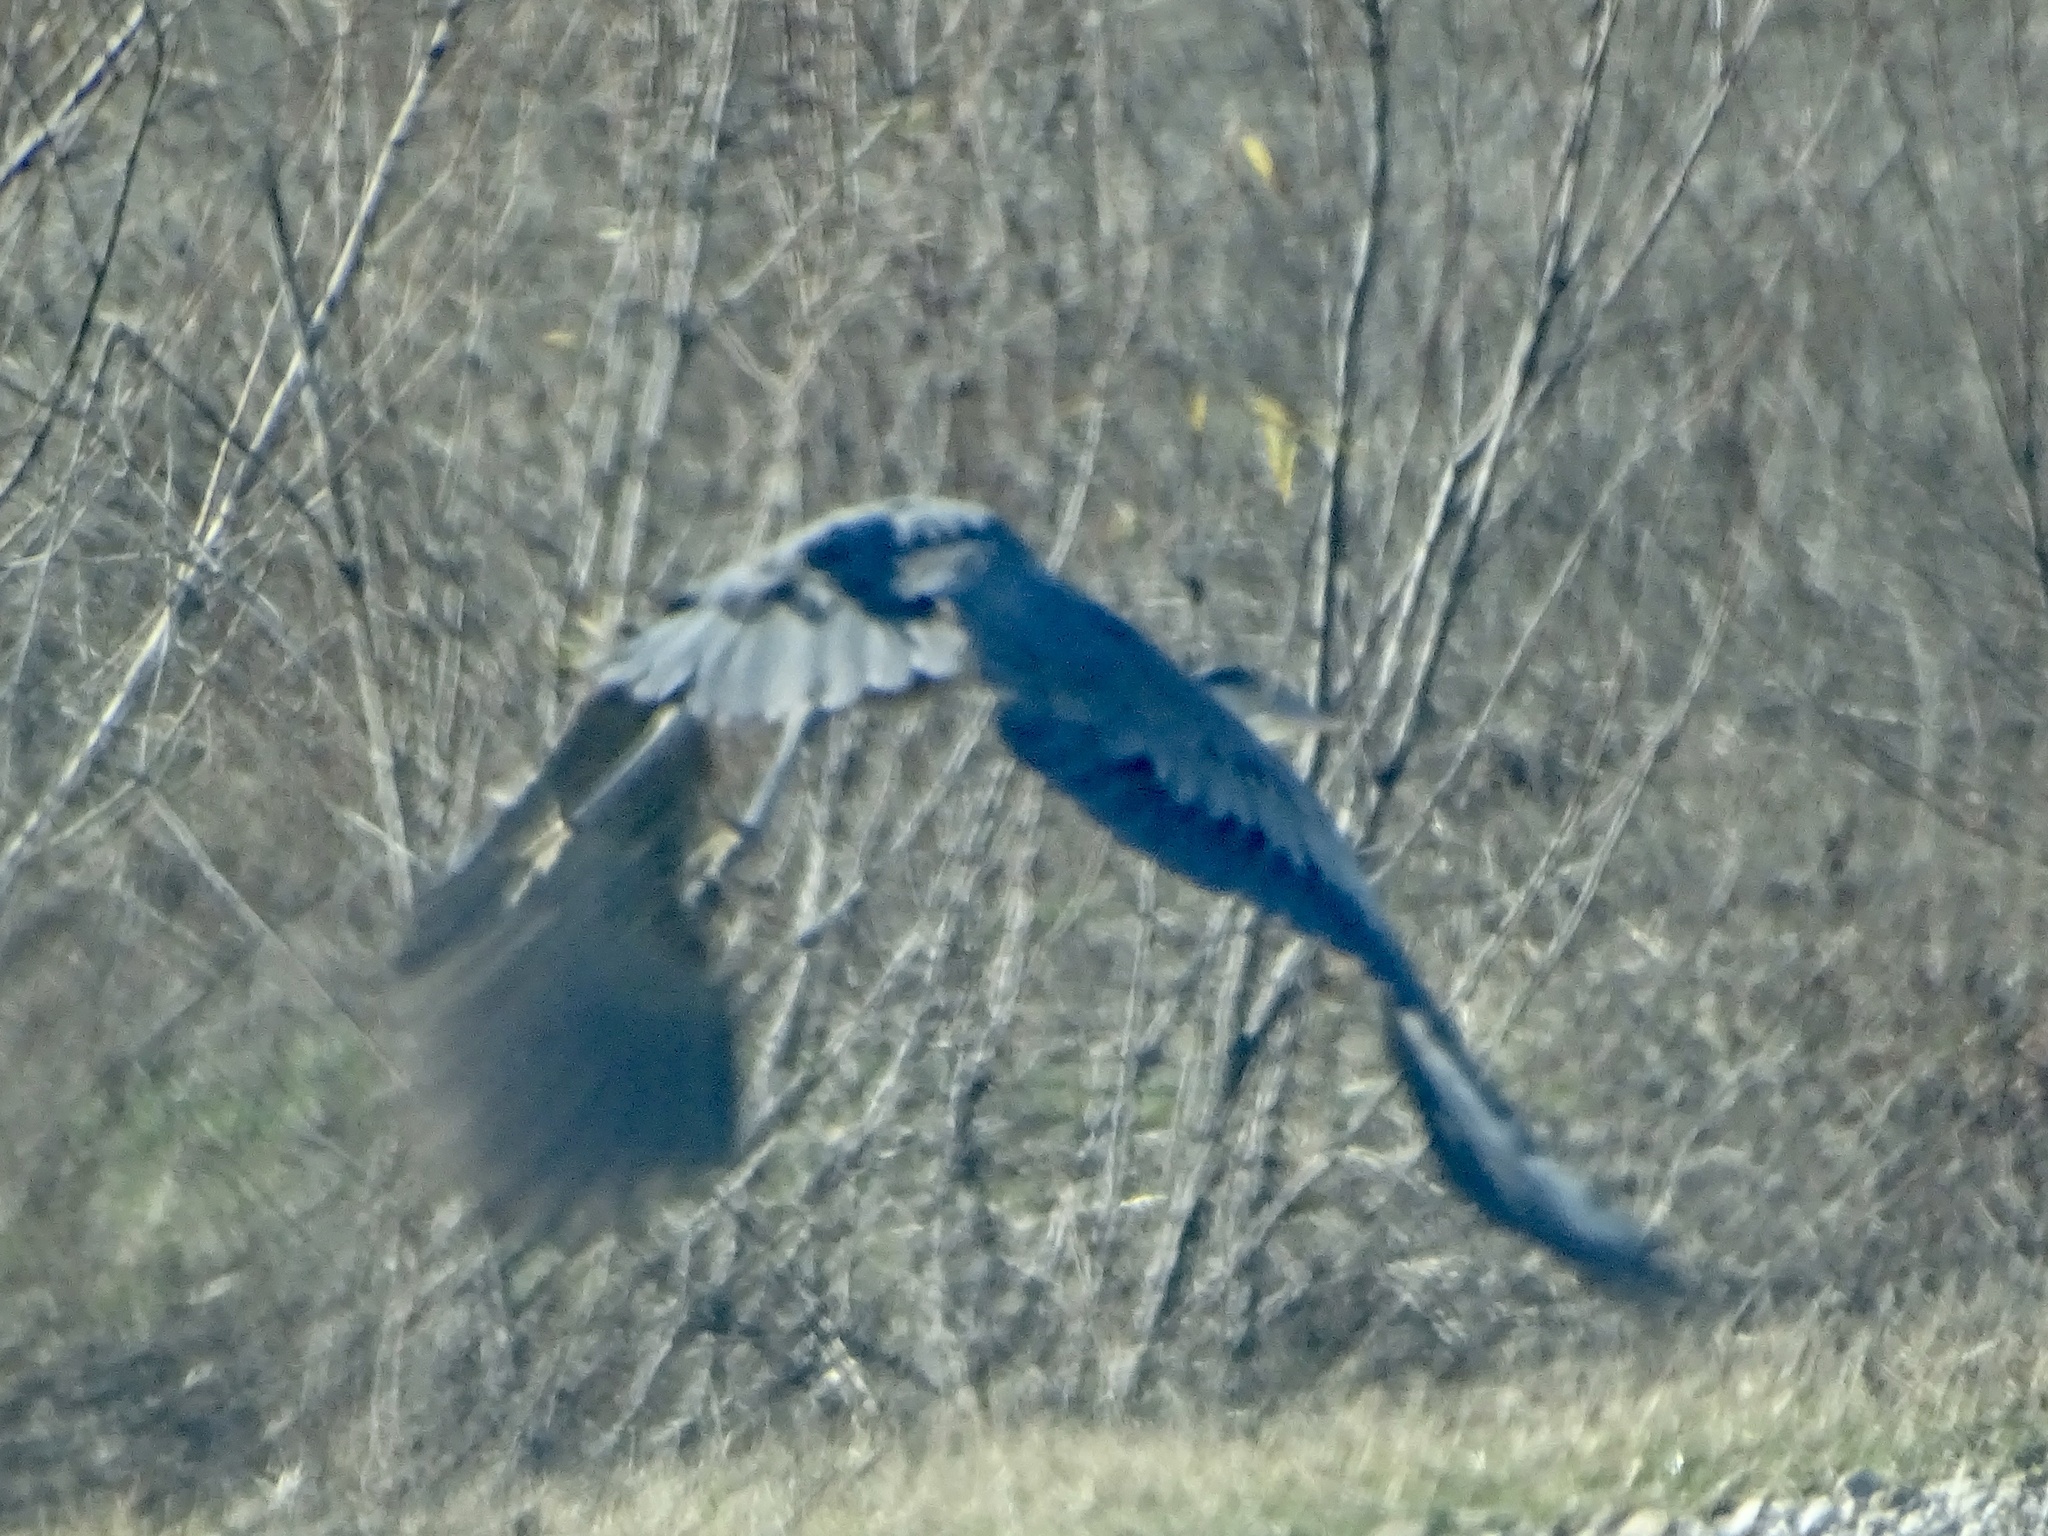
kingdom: Animalia
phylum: Chordata
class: Aves
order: Pelecaniformes
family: Ardeidae
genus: Ardea
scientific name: Ardea herodias
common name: Great blue heron
